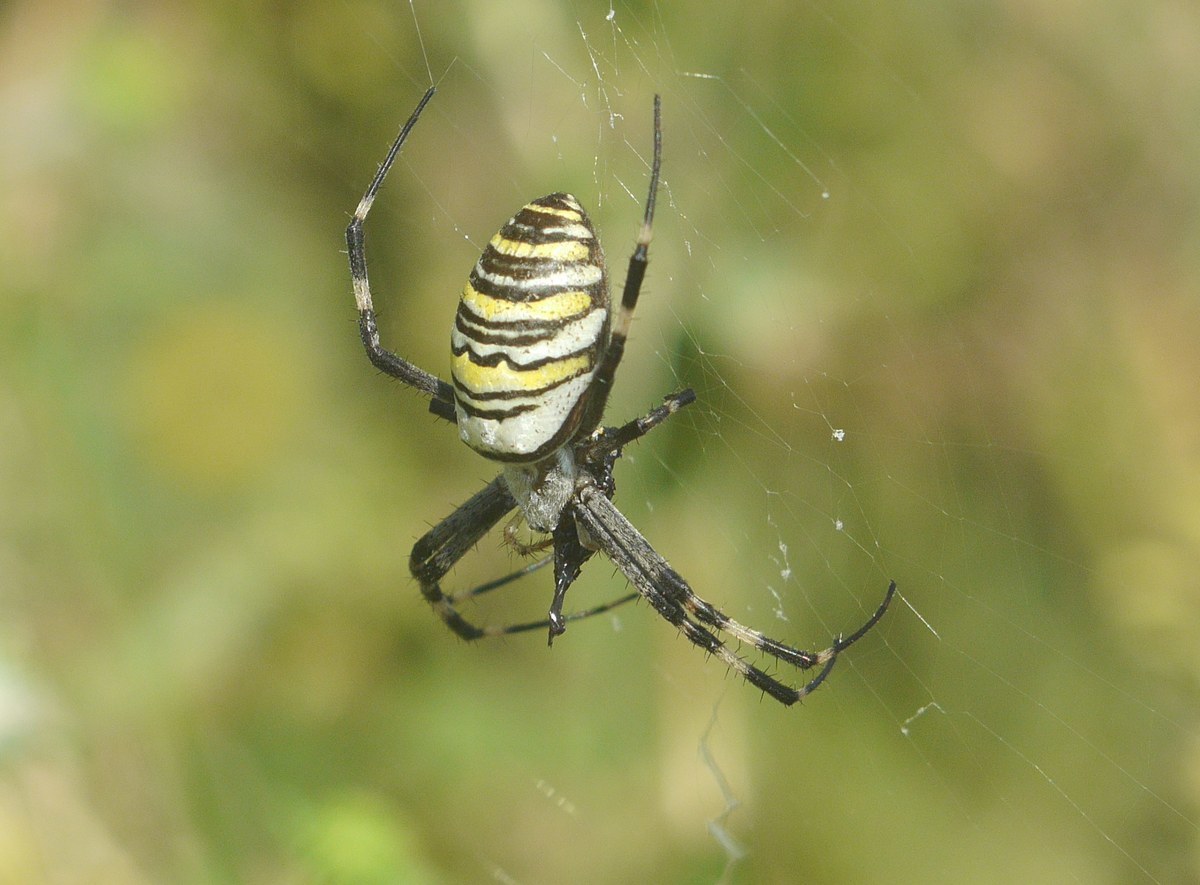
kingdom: Animalia
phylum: Arthropoda
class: Arachnida
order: Araneae
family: Araneidae
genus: Argiope
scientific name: Argiope bruennichi
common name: Wasp spider
